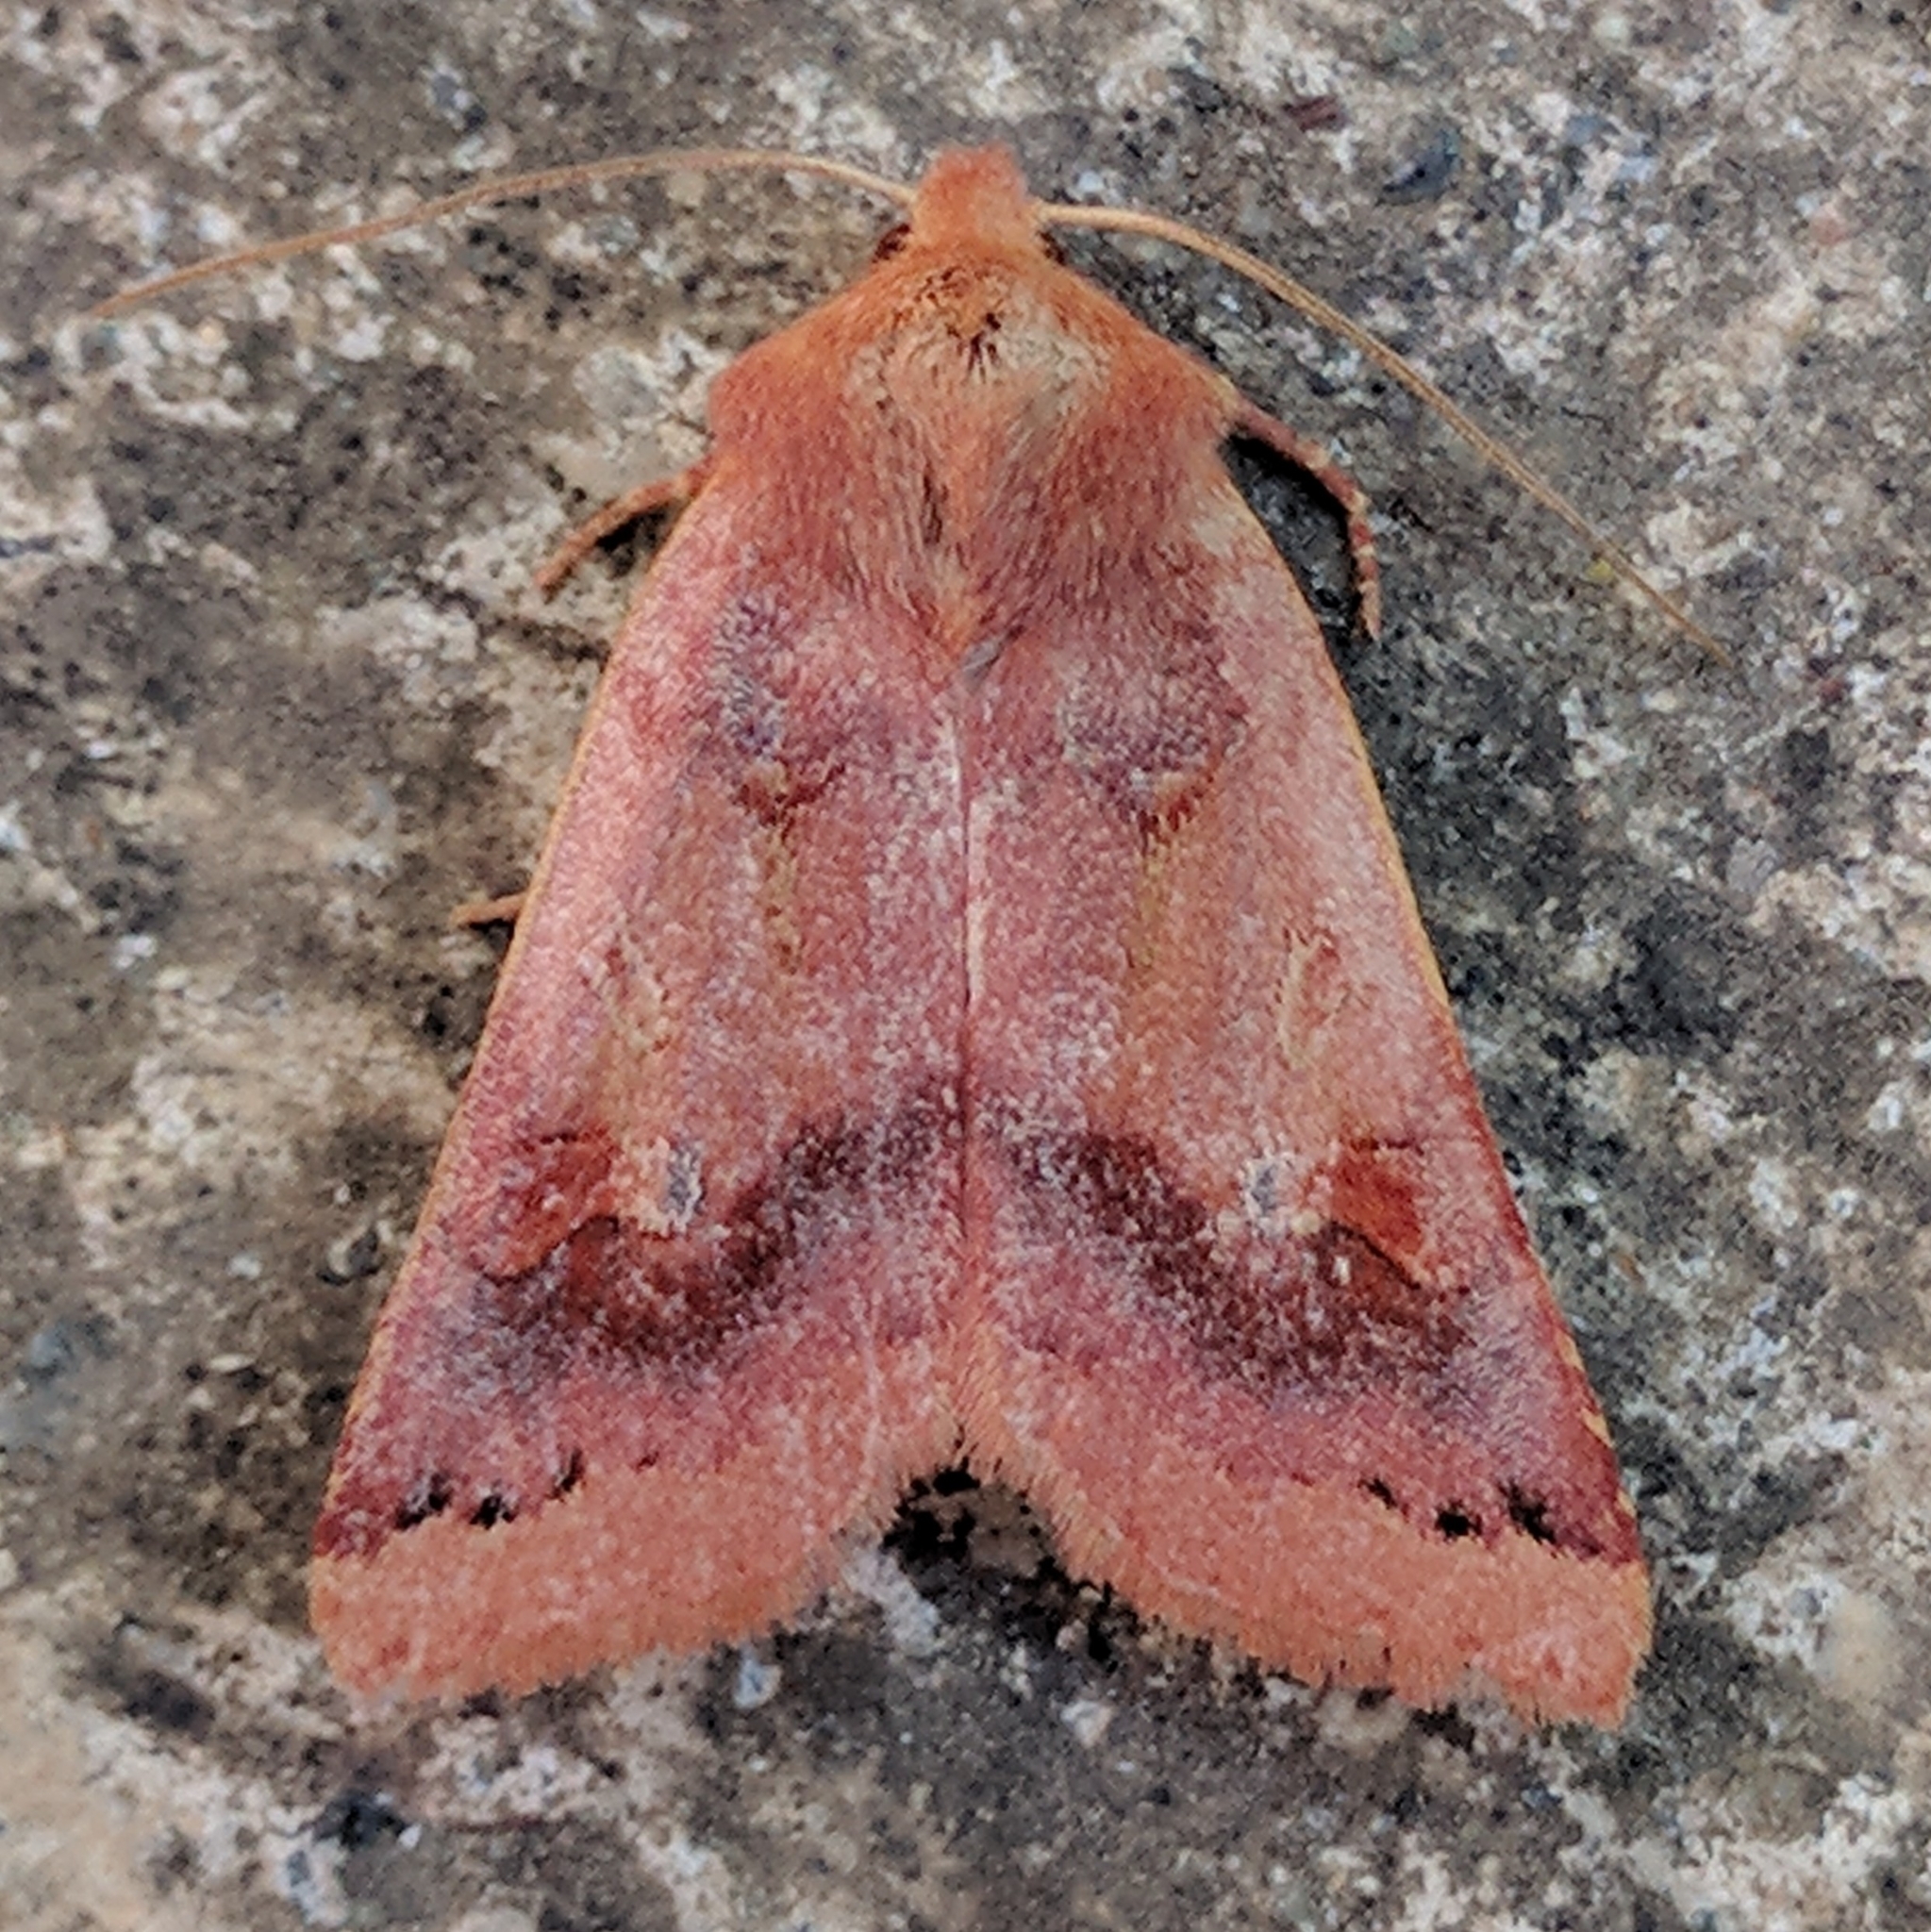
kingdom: Animalia
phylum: Arthropoda
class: Insecta
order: Lepidoptera
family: Noctuidae
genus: Agrochola
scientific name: Agrochola pulchella
